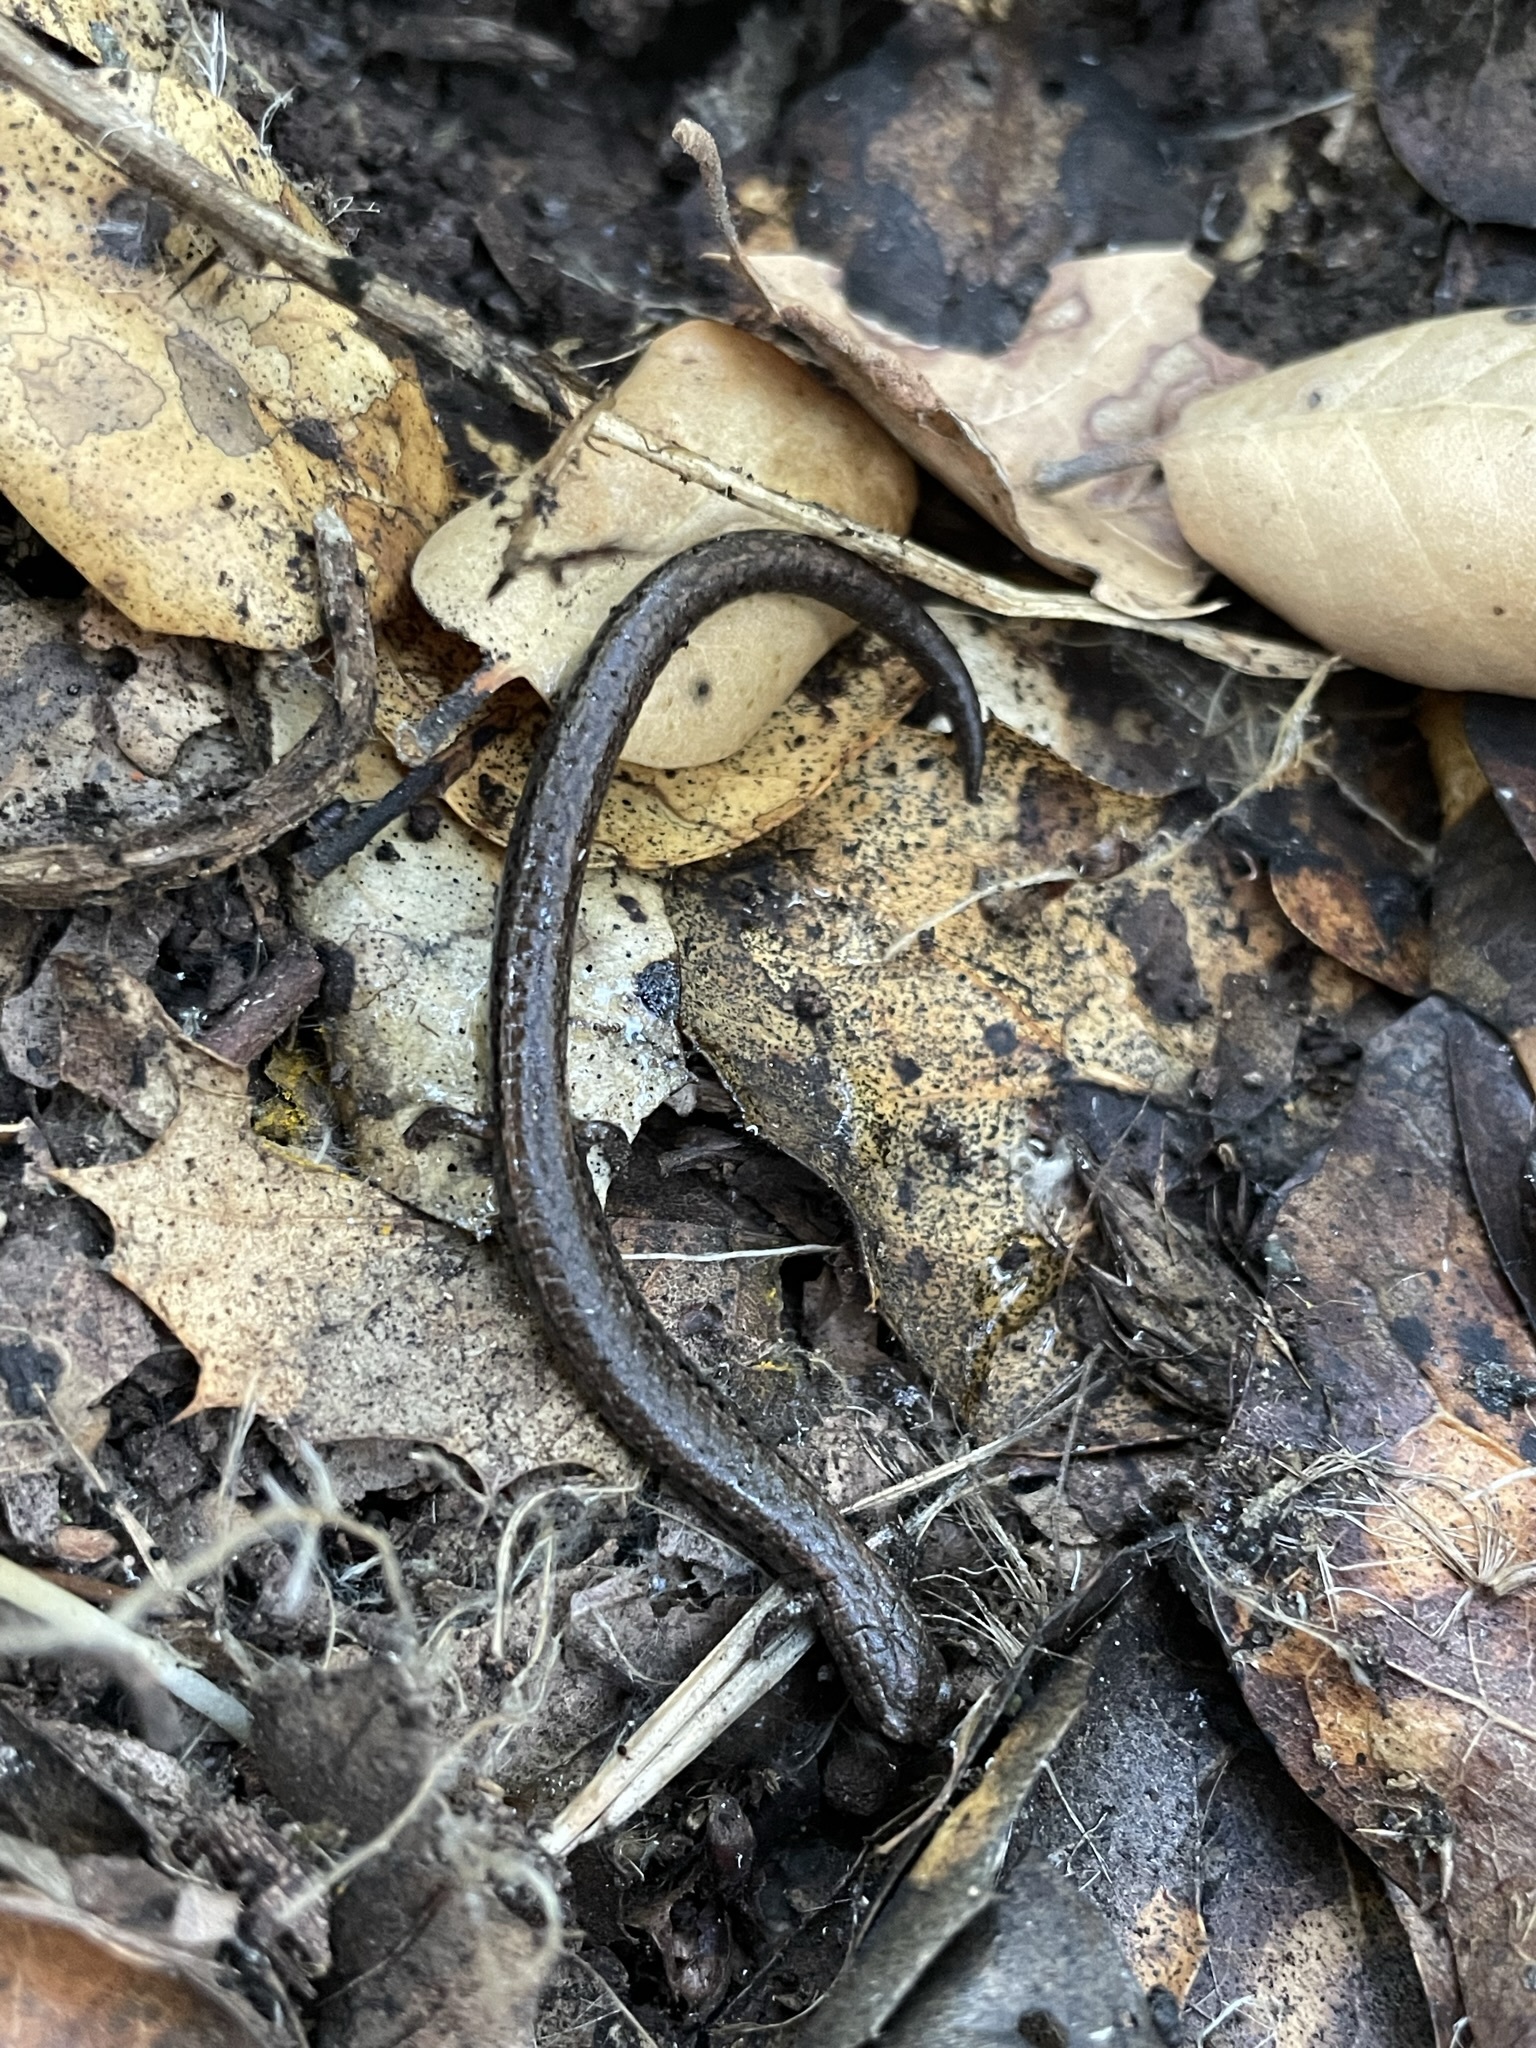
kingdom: Animalia
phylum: Chordata
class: Amphibia
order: Caudata
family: Plethodontidae
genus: Batrachoseps
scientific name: Batrachoseps attenuatus
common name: California slender salamander
